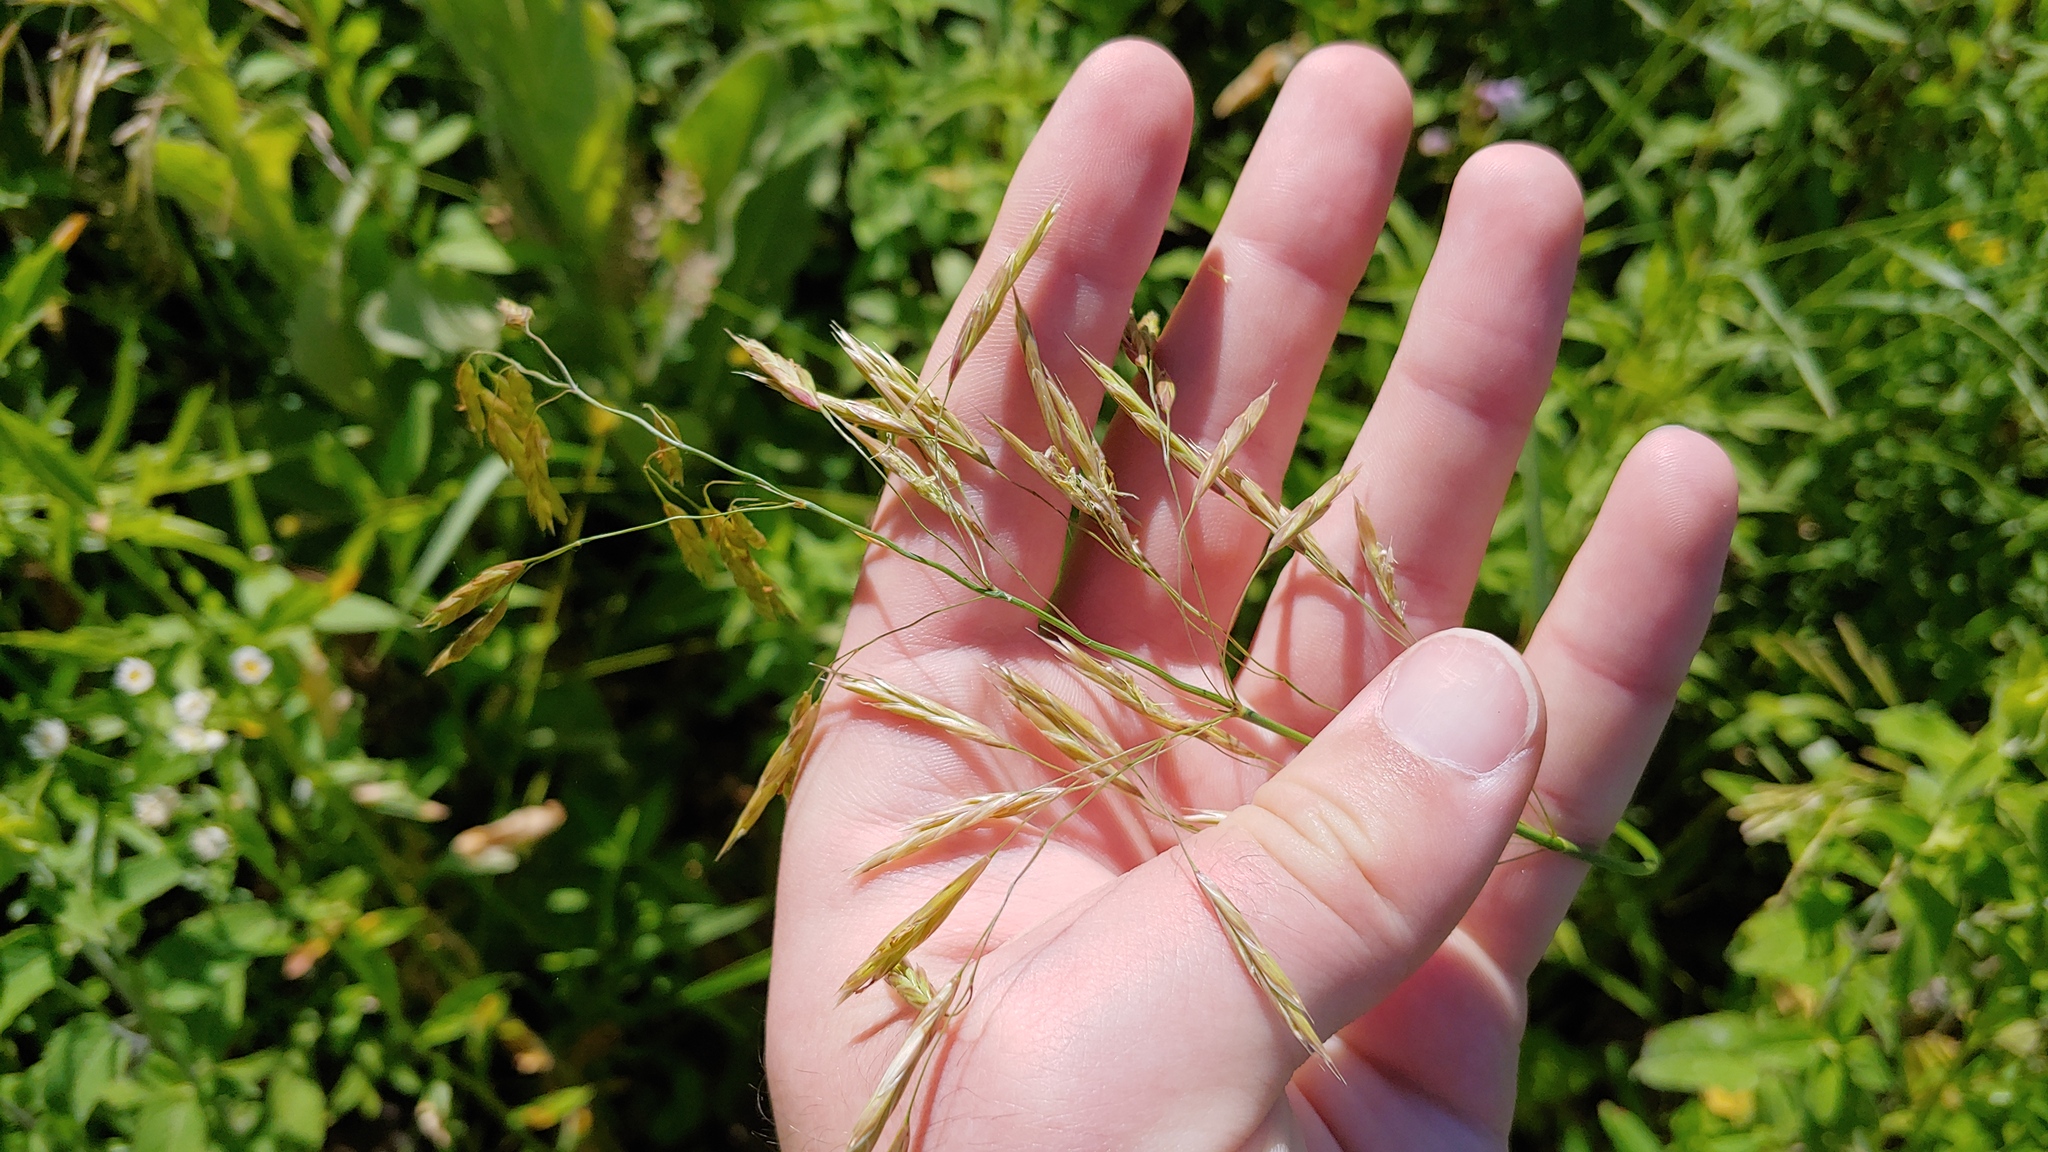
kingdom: Plantae
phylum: Tracheophyta
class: Liliopsida
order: Poales
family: Poaceae
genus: Bromus
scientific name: Bromus inermis
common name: Smooth brome
